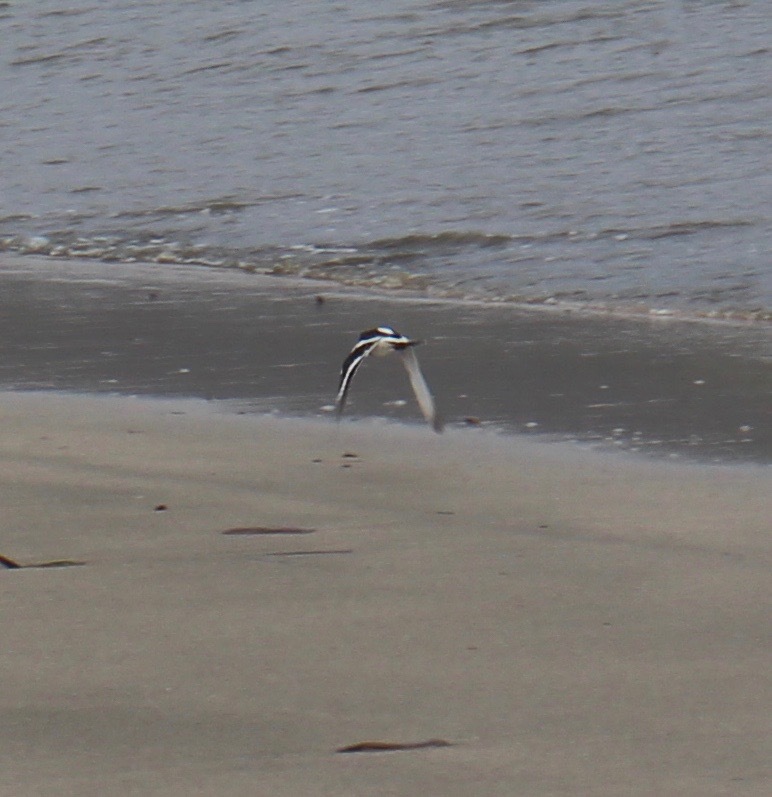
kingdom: Animalia
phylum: Chordata
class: Aves
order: Charadriiformes
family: Scolopacidae
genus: Arenaria
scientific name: Arenaria melanocephala
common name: Black turnstone
